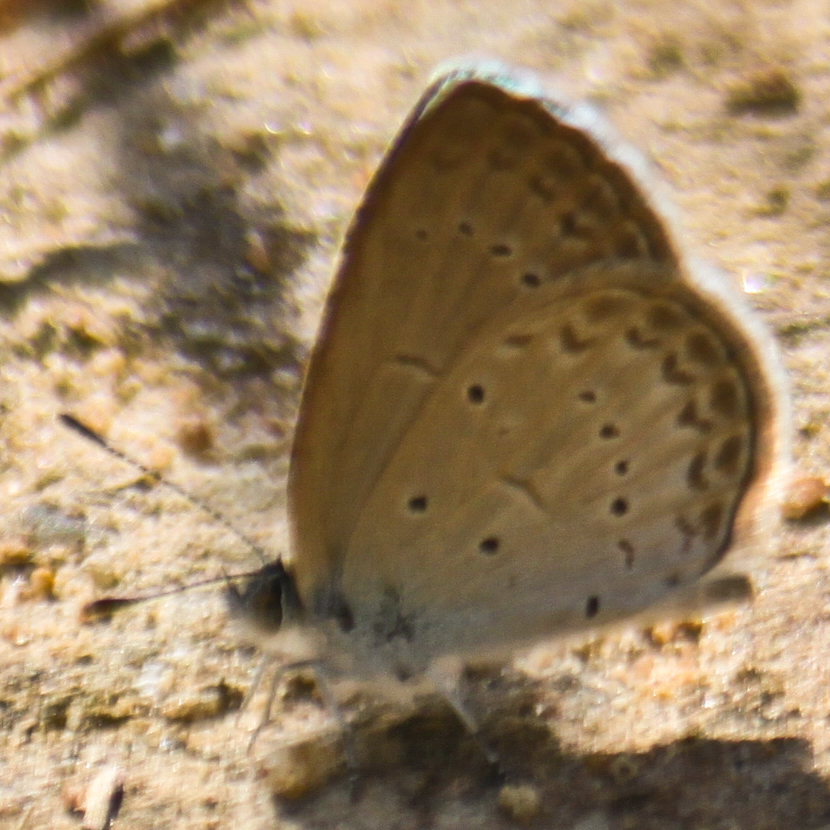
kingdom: Animalia
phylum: Arthropoda
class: Insecta
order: Lepidoptera
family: Lycaenidae
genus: Zizina
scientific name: Zizina otis
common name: Lesser grass blue
